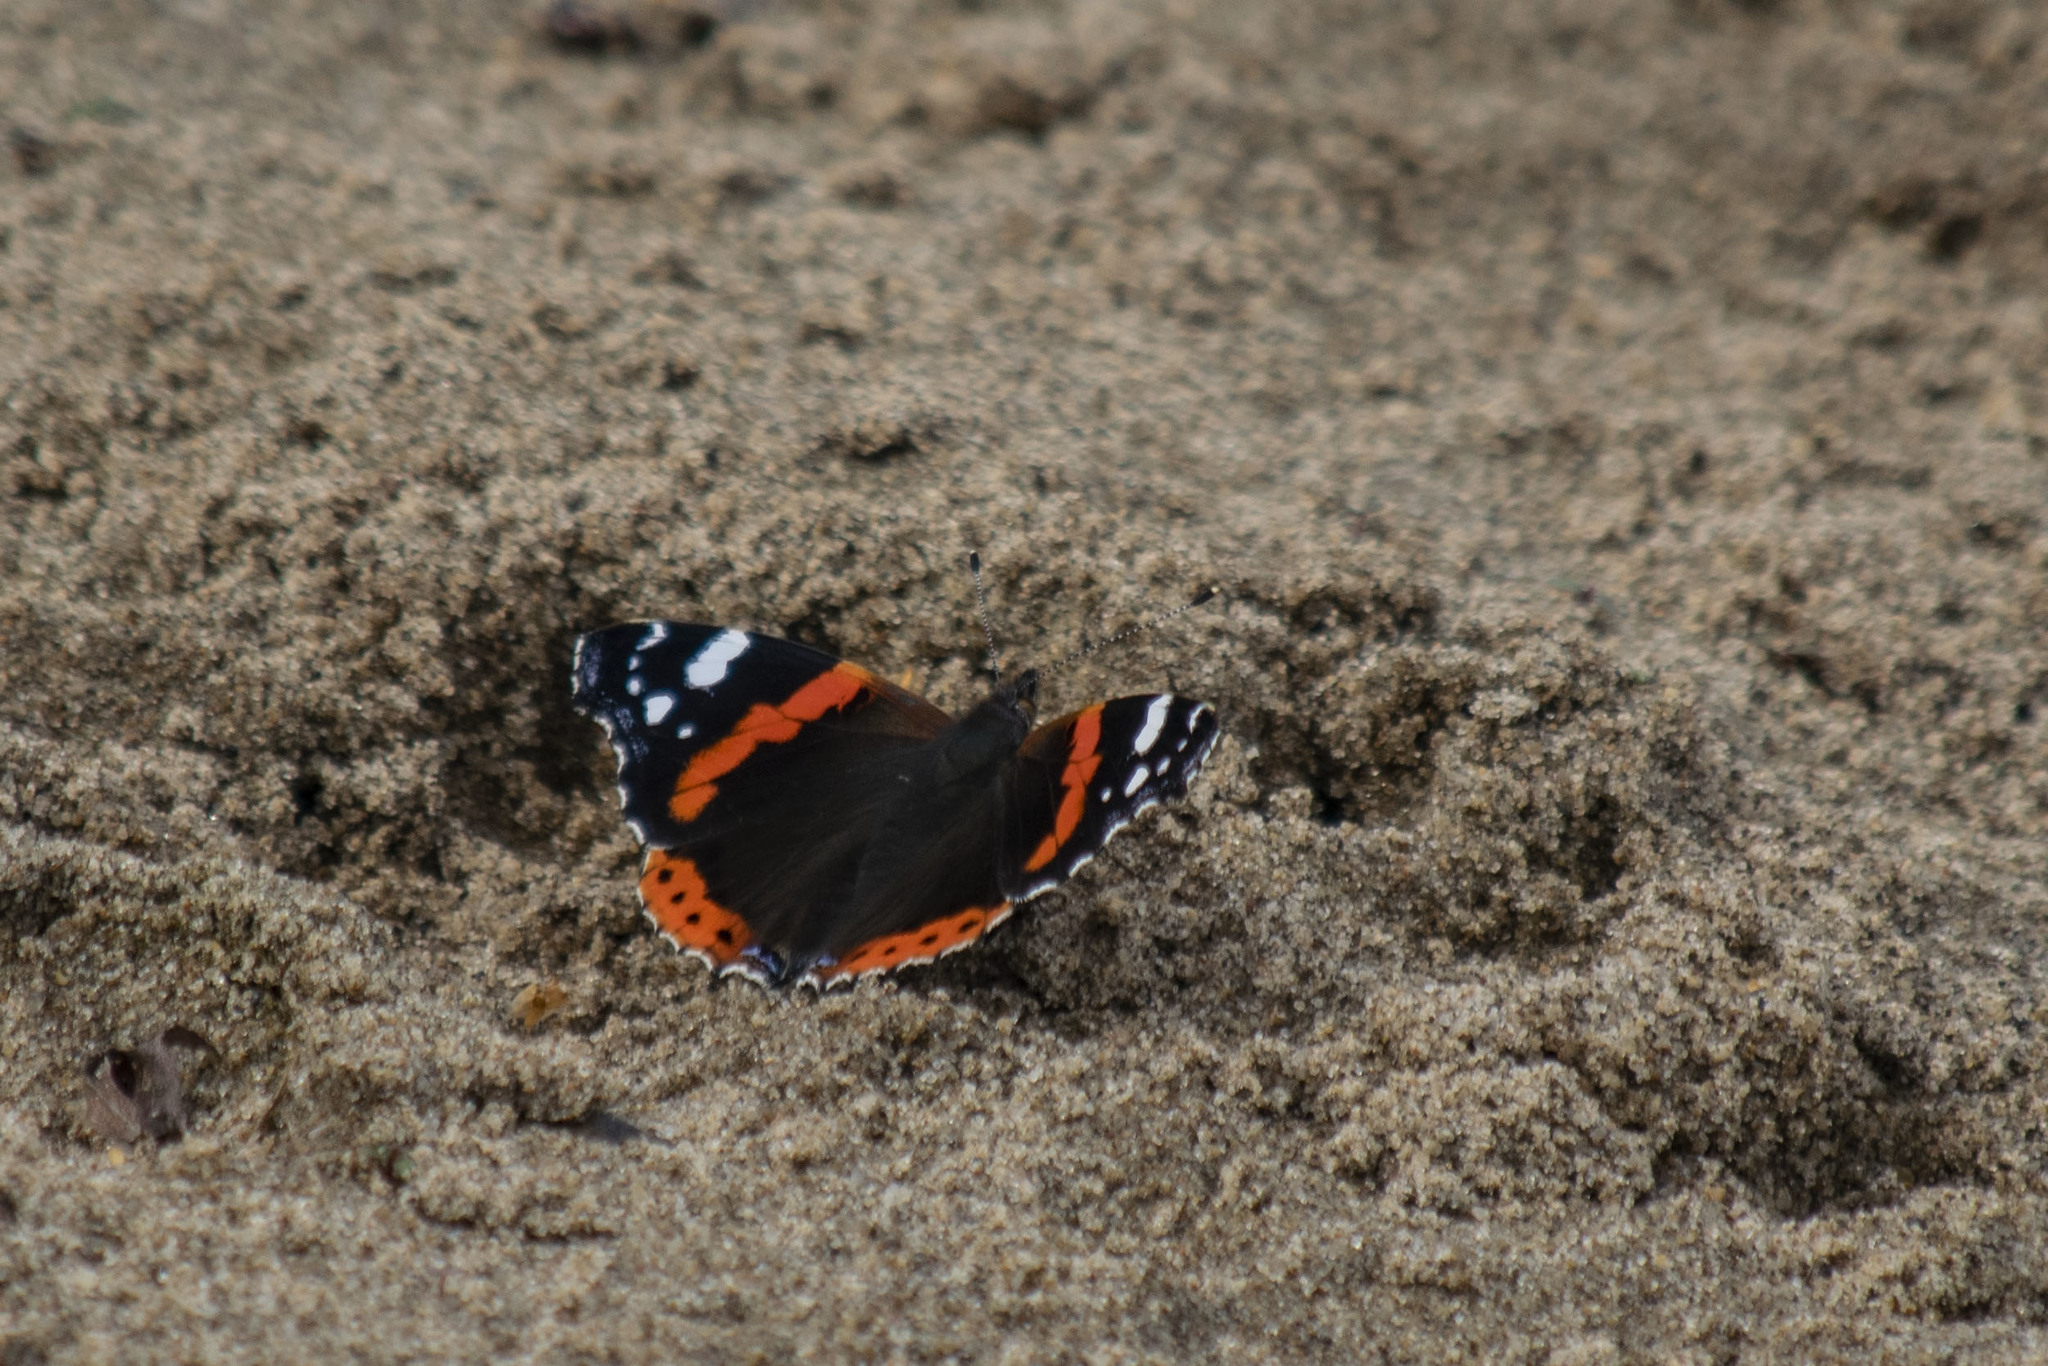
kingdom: Animalia
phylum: Arthropoda
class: Insecta
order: Lepidoptera
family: Nymphalidae
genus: Vanessa
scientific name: Vanessa atalanta
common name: Red admiral
